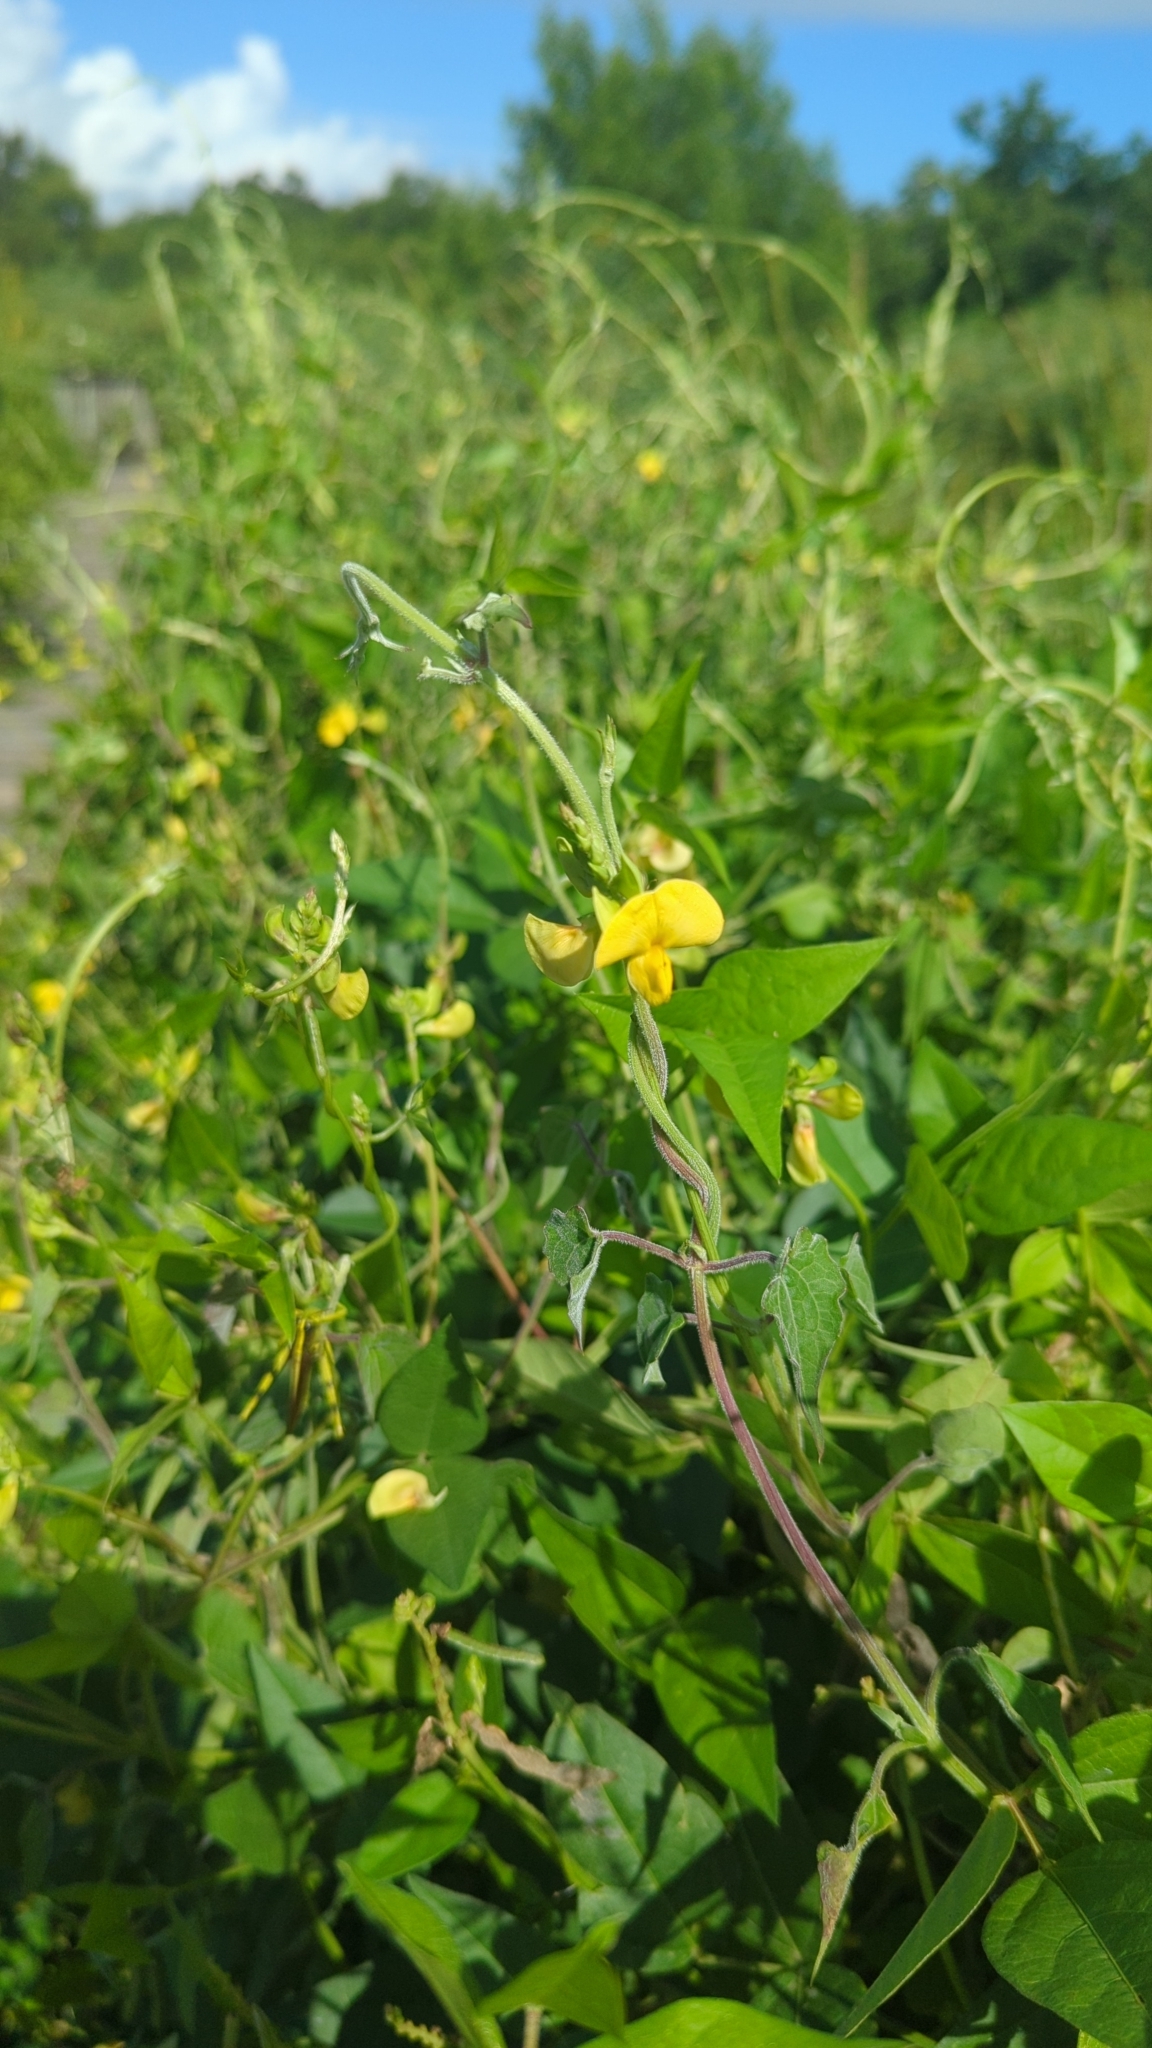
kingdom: Plantae
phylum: Tracheophyta
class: Magnoliopsida
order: Fabales
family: Fabaceae
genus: Vigna
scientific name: Vigna luteola
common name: Hairypod cowpea
